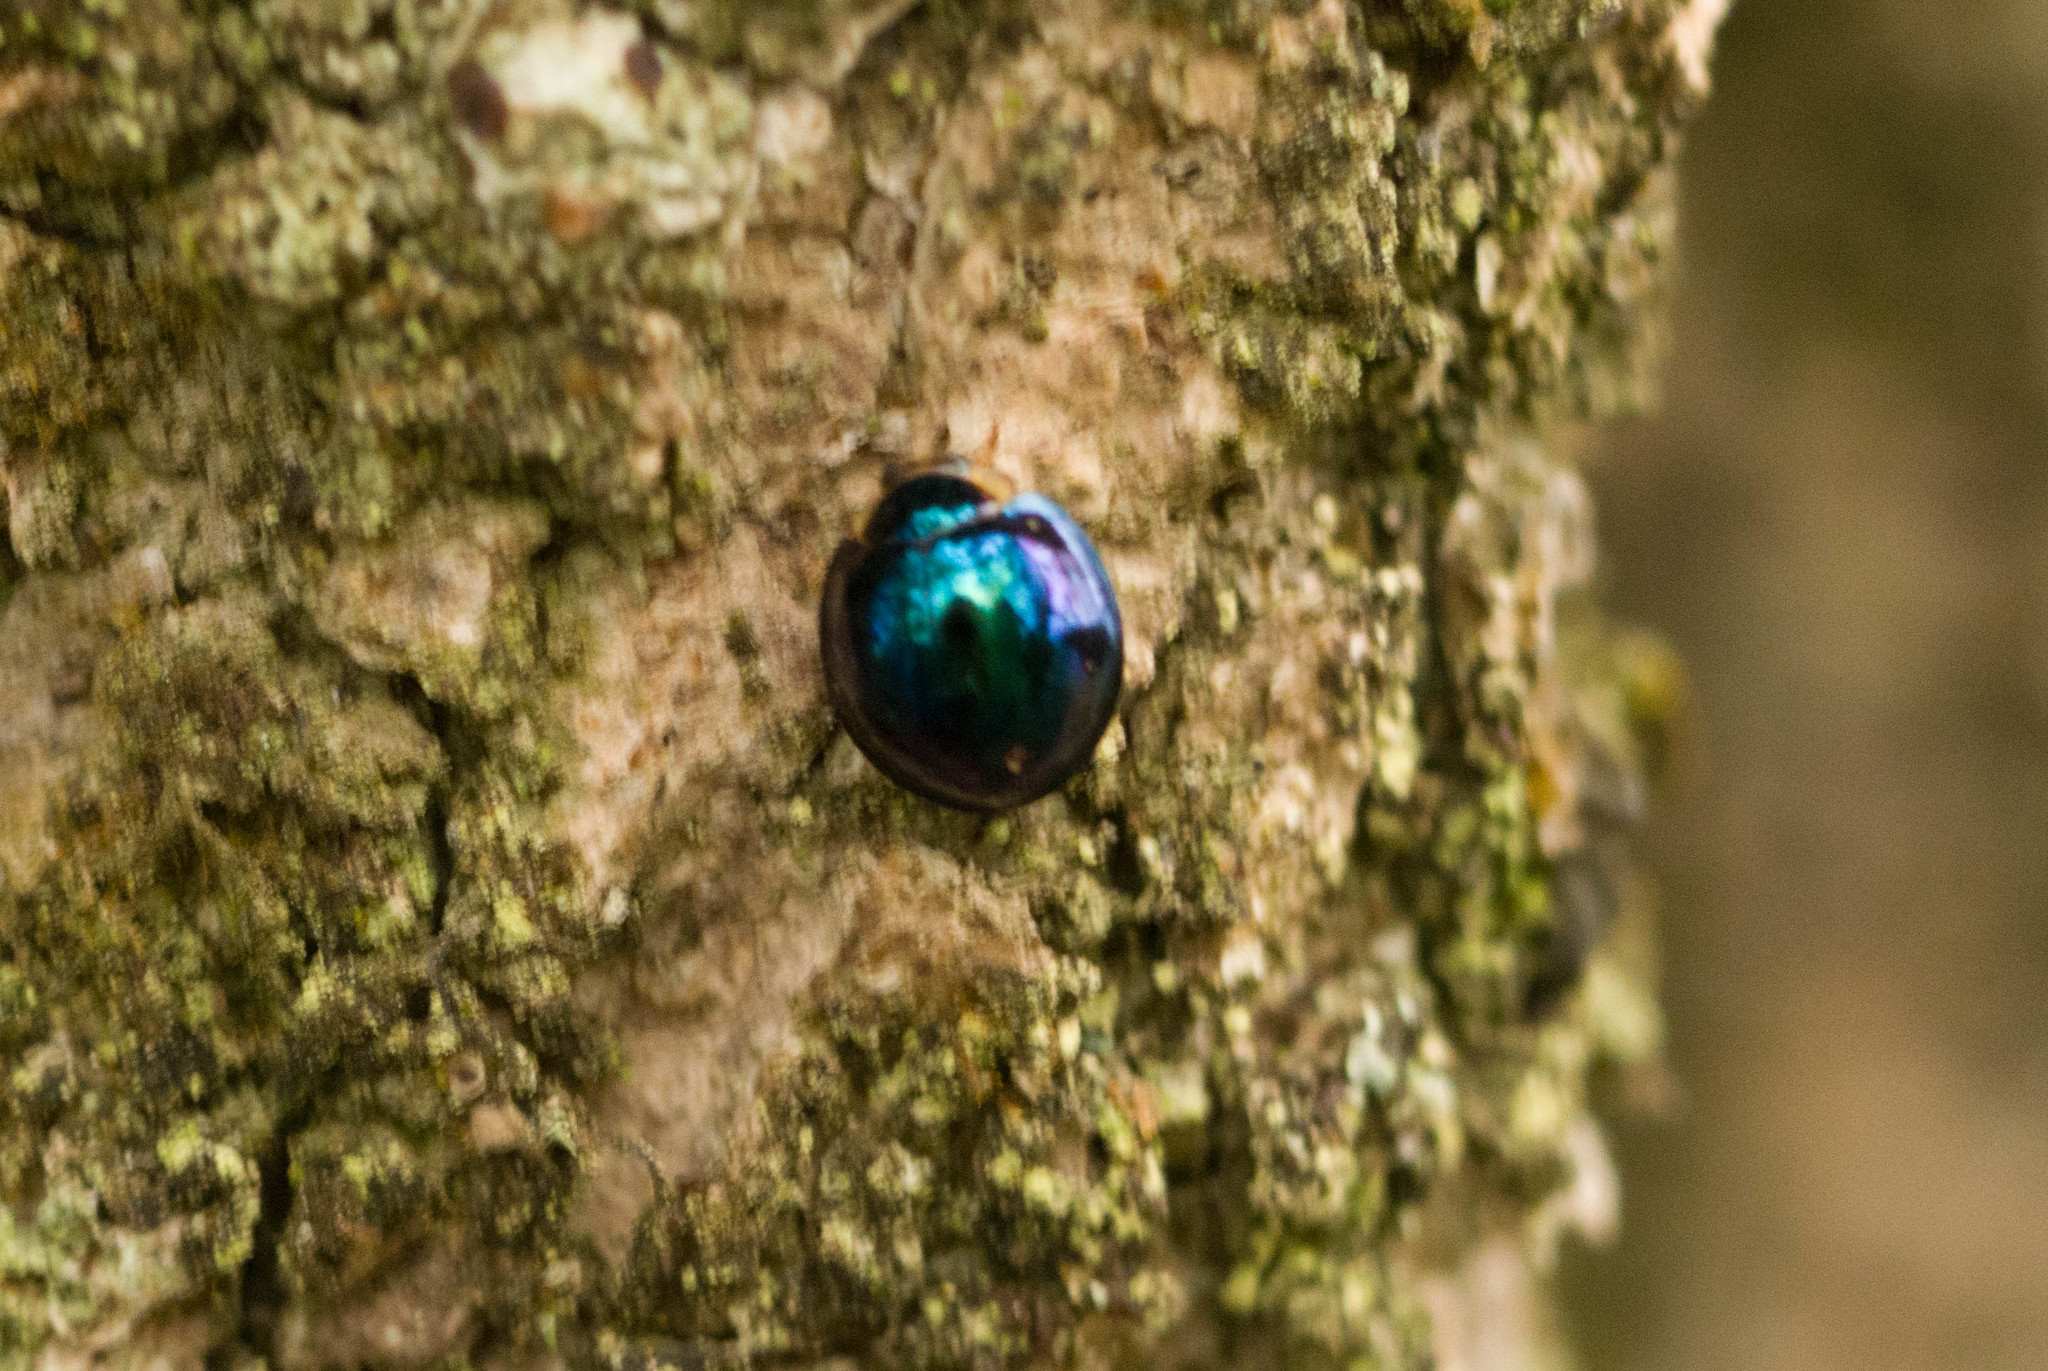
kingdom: Animalia
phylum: Arthropoda
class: Insecta
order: Coleoptera
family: Coccinellidae
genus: Halmus
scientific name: Halmus chalybeus
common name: Steel blue ladybird beetle
